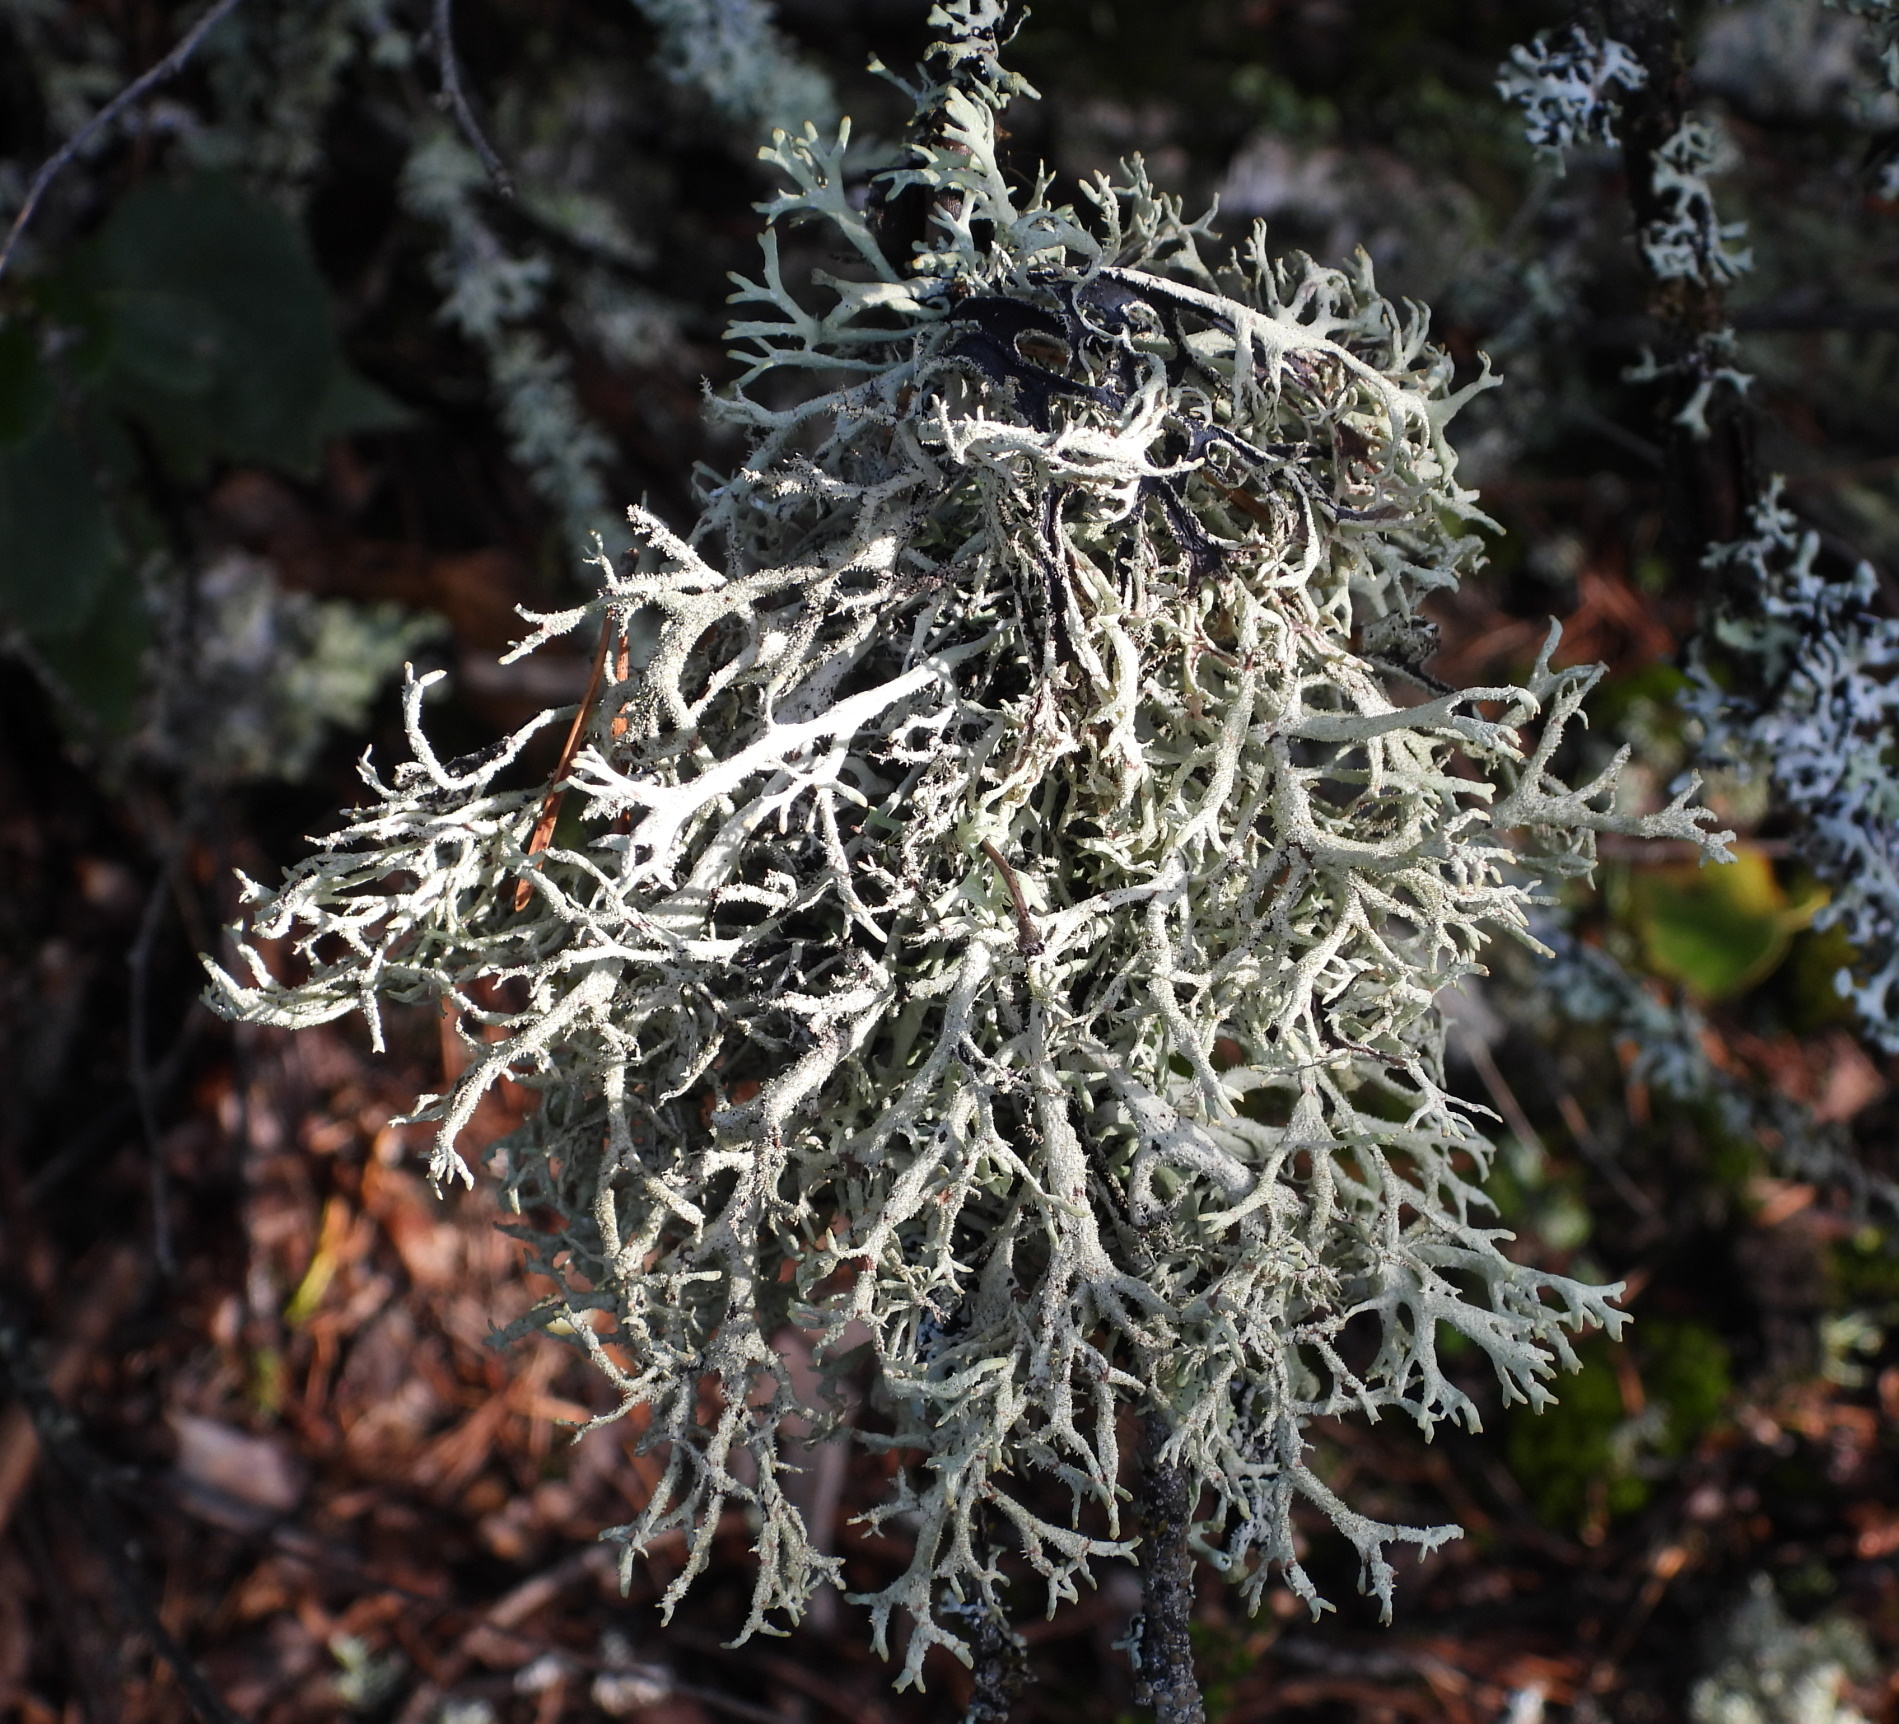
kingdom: Fungi
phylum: Ascomycota
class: Lecanoromycetes
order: Lecanorales
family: Parmeliaceae
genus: Pseudevernia
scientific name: Pseudevernia furfuracea
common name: Tree moss
